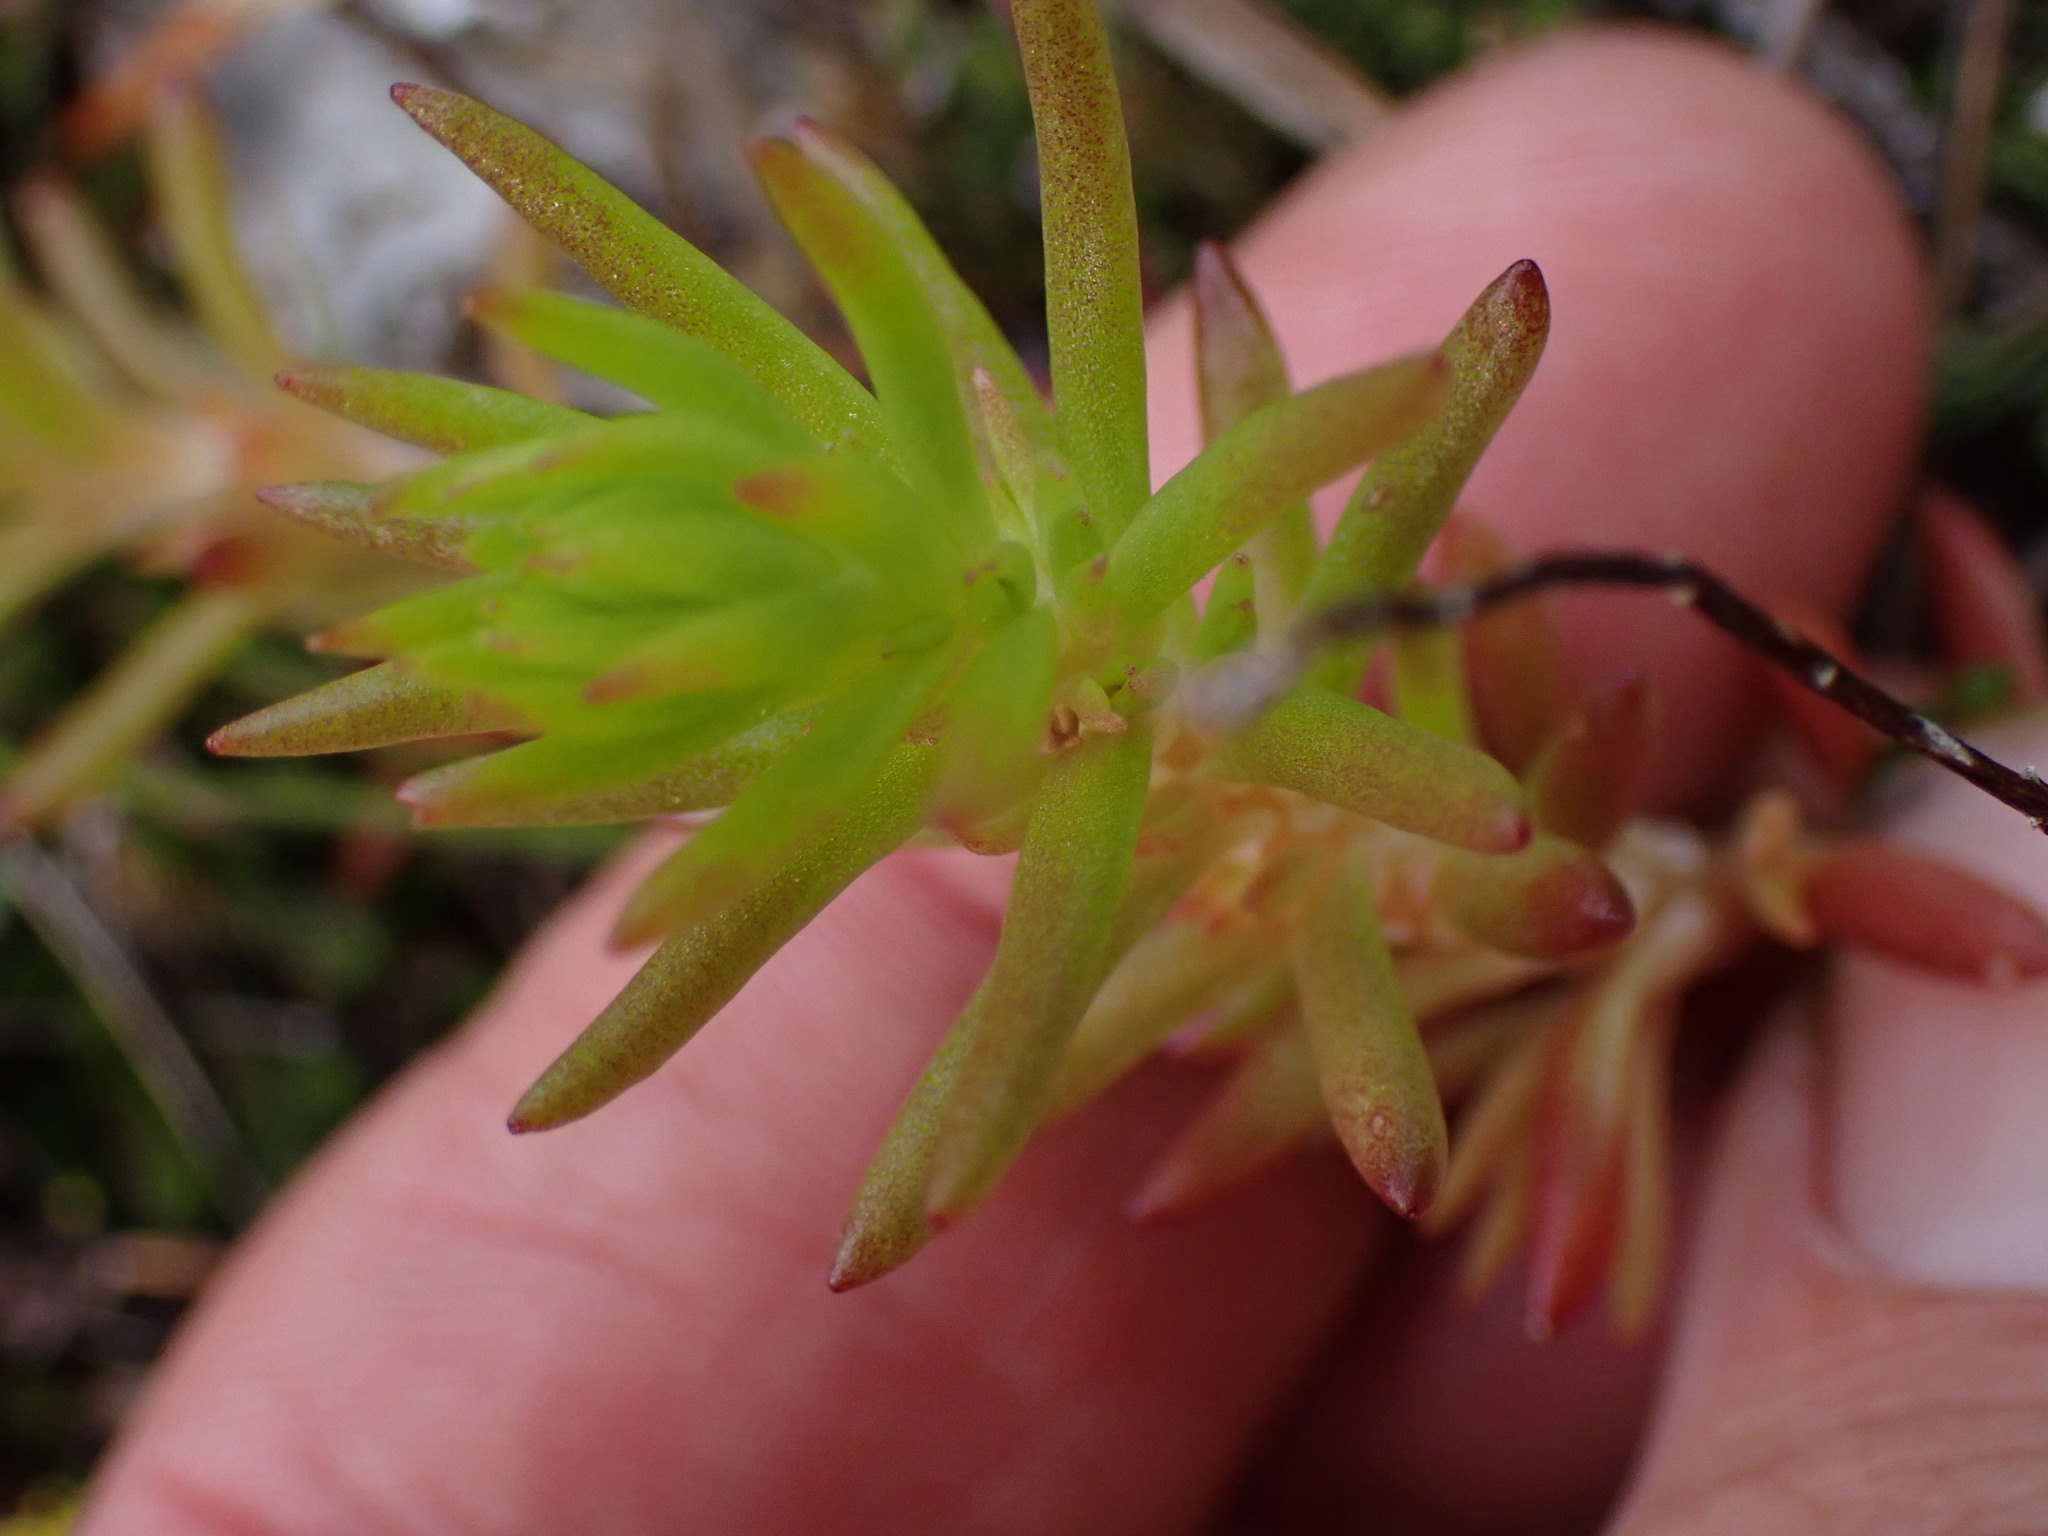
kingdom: Plantae
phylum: Tracheophyta
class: Magnoliopsida
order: Saxifragales
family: Crassulaceae
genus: Sedum
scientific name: Sedum stenopetalum
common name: Narrow-petaled stonecrop
